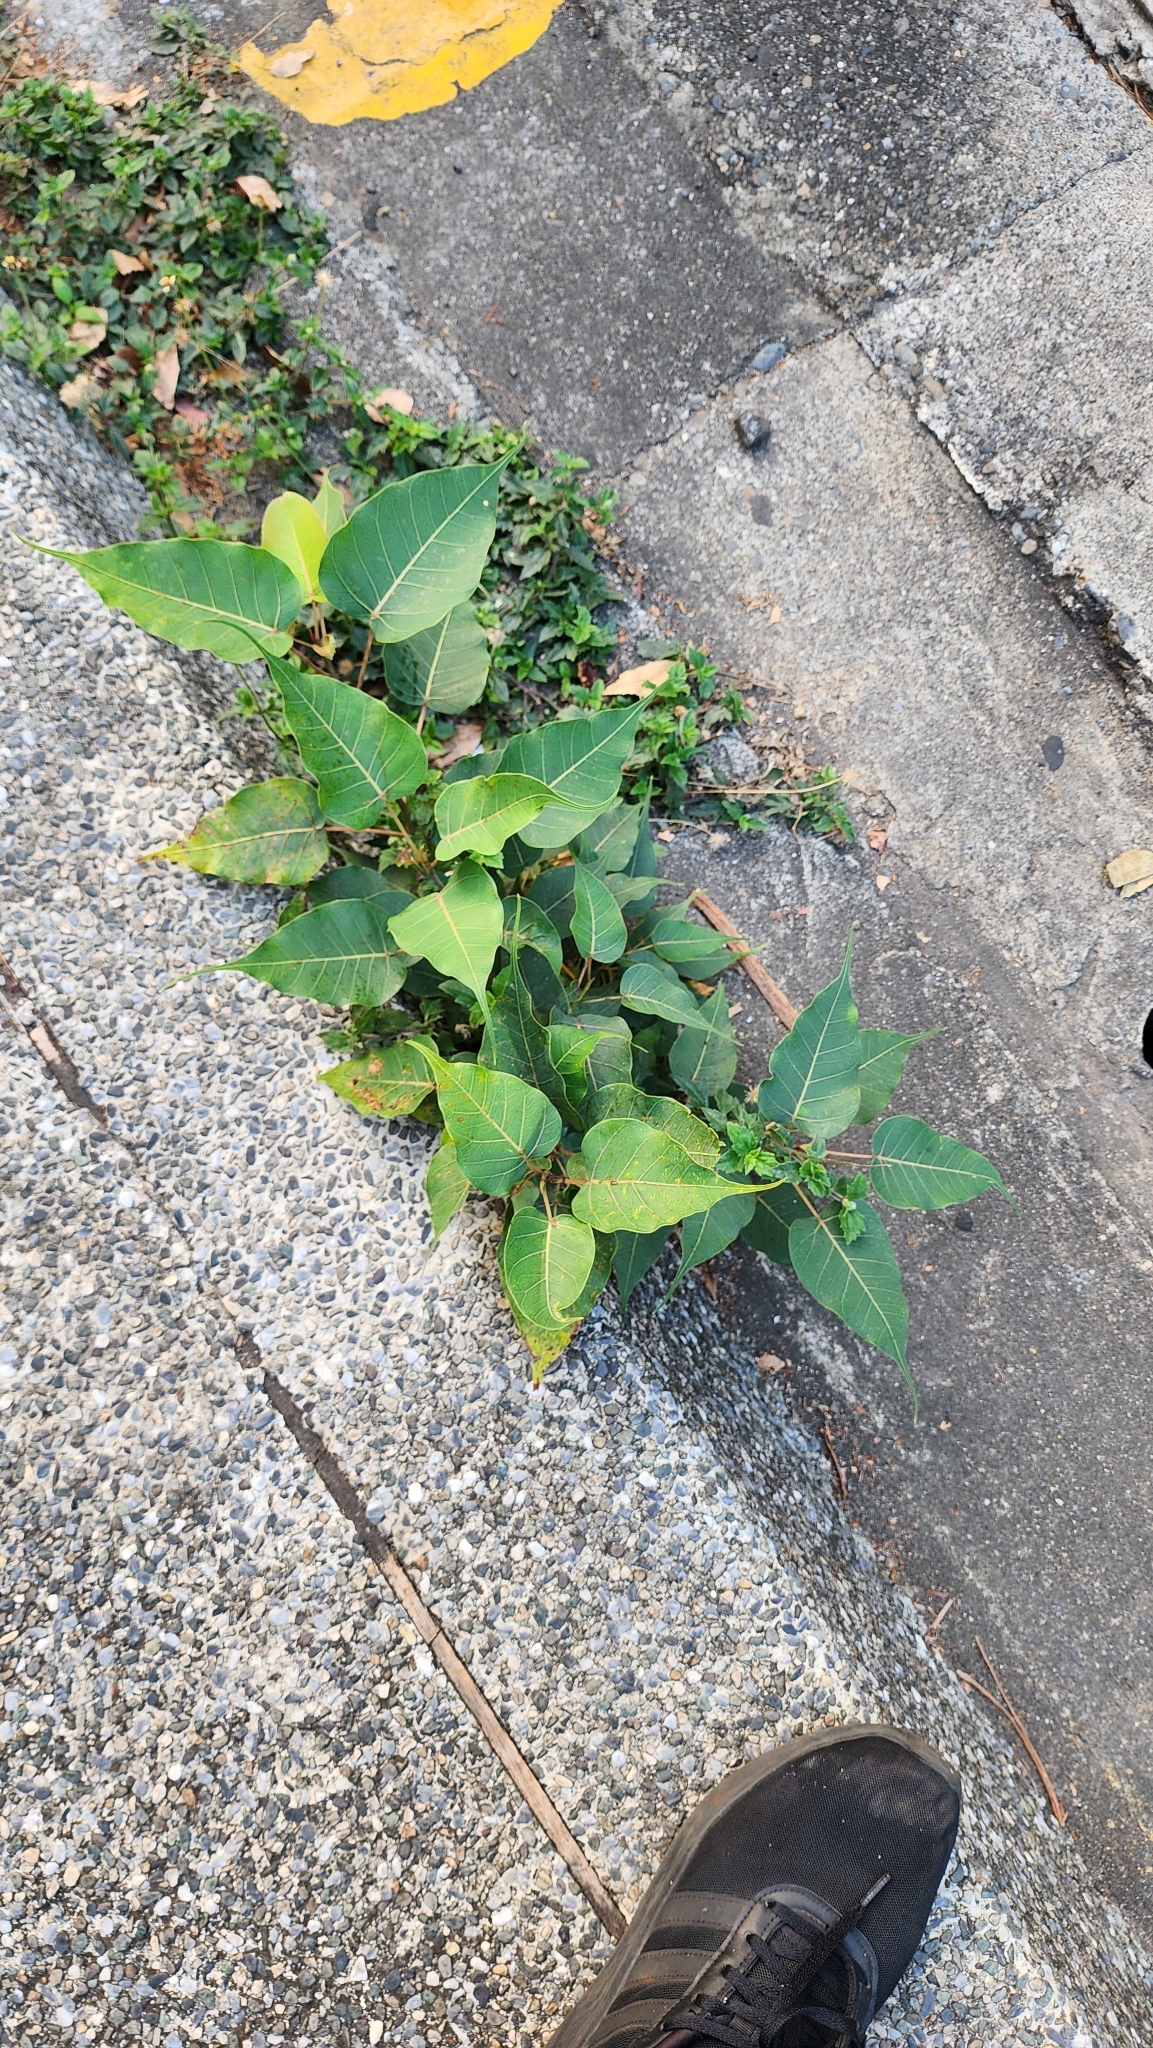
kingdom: Plantae
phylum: Tracheophyta
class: Magnoliopsida
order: Rosales
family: Moraceae
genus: Ficus
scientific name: Ficus religiosa
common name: Bodhi tree
